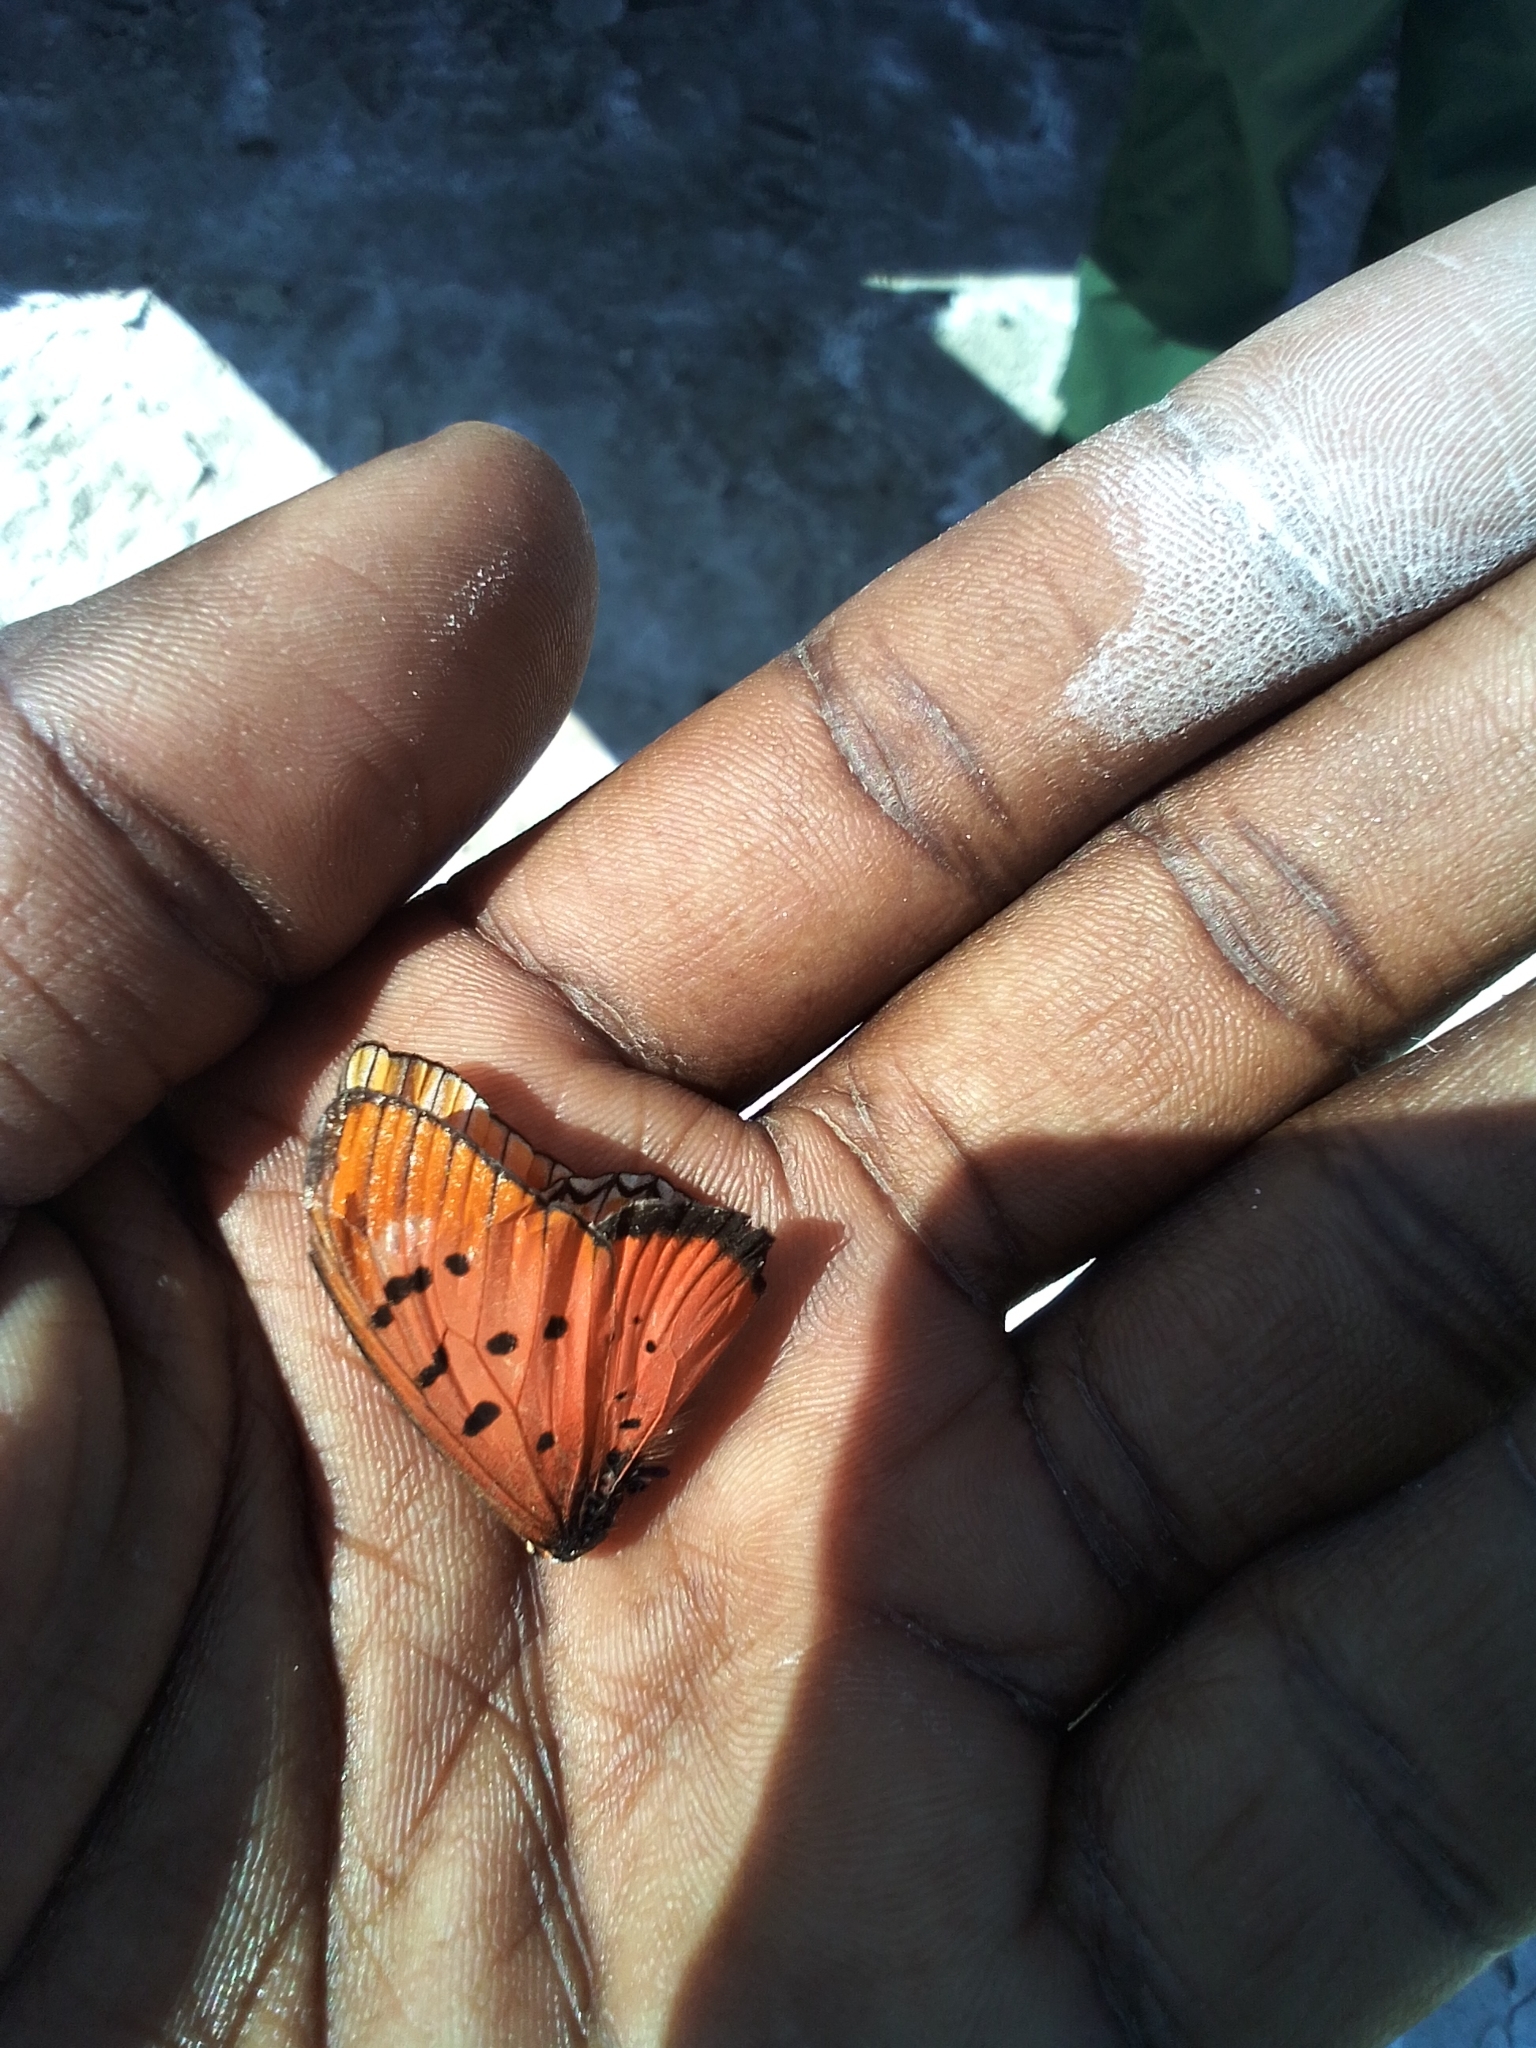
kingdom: Animalia
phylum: Arthropoda
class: Insecta
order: Lepidoptera
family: Nymphalidae
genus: Stephenia
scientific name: Stephenia
